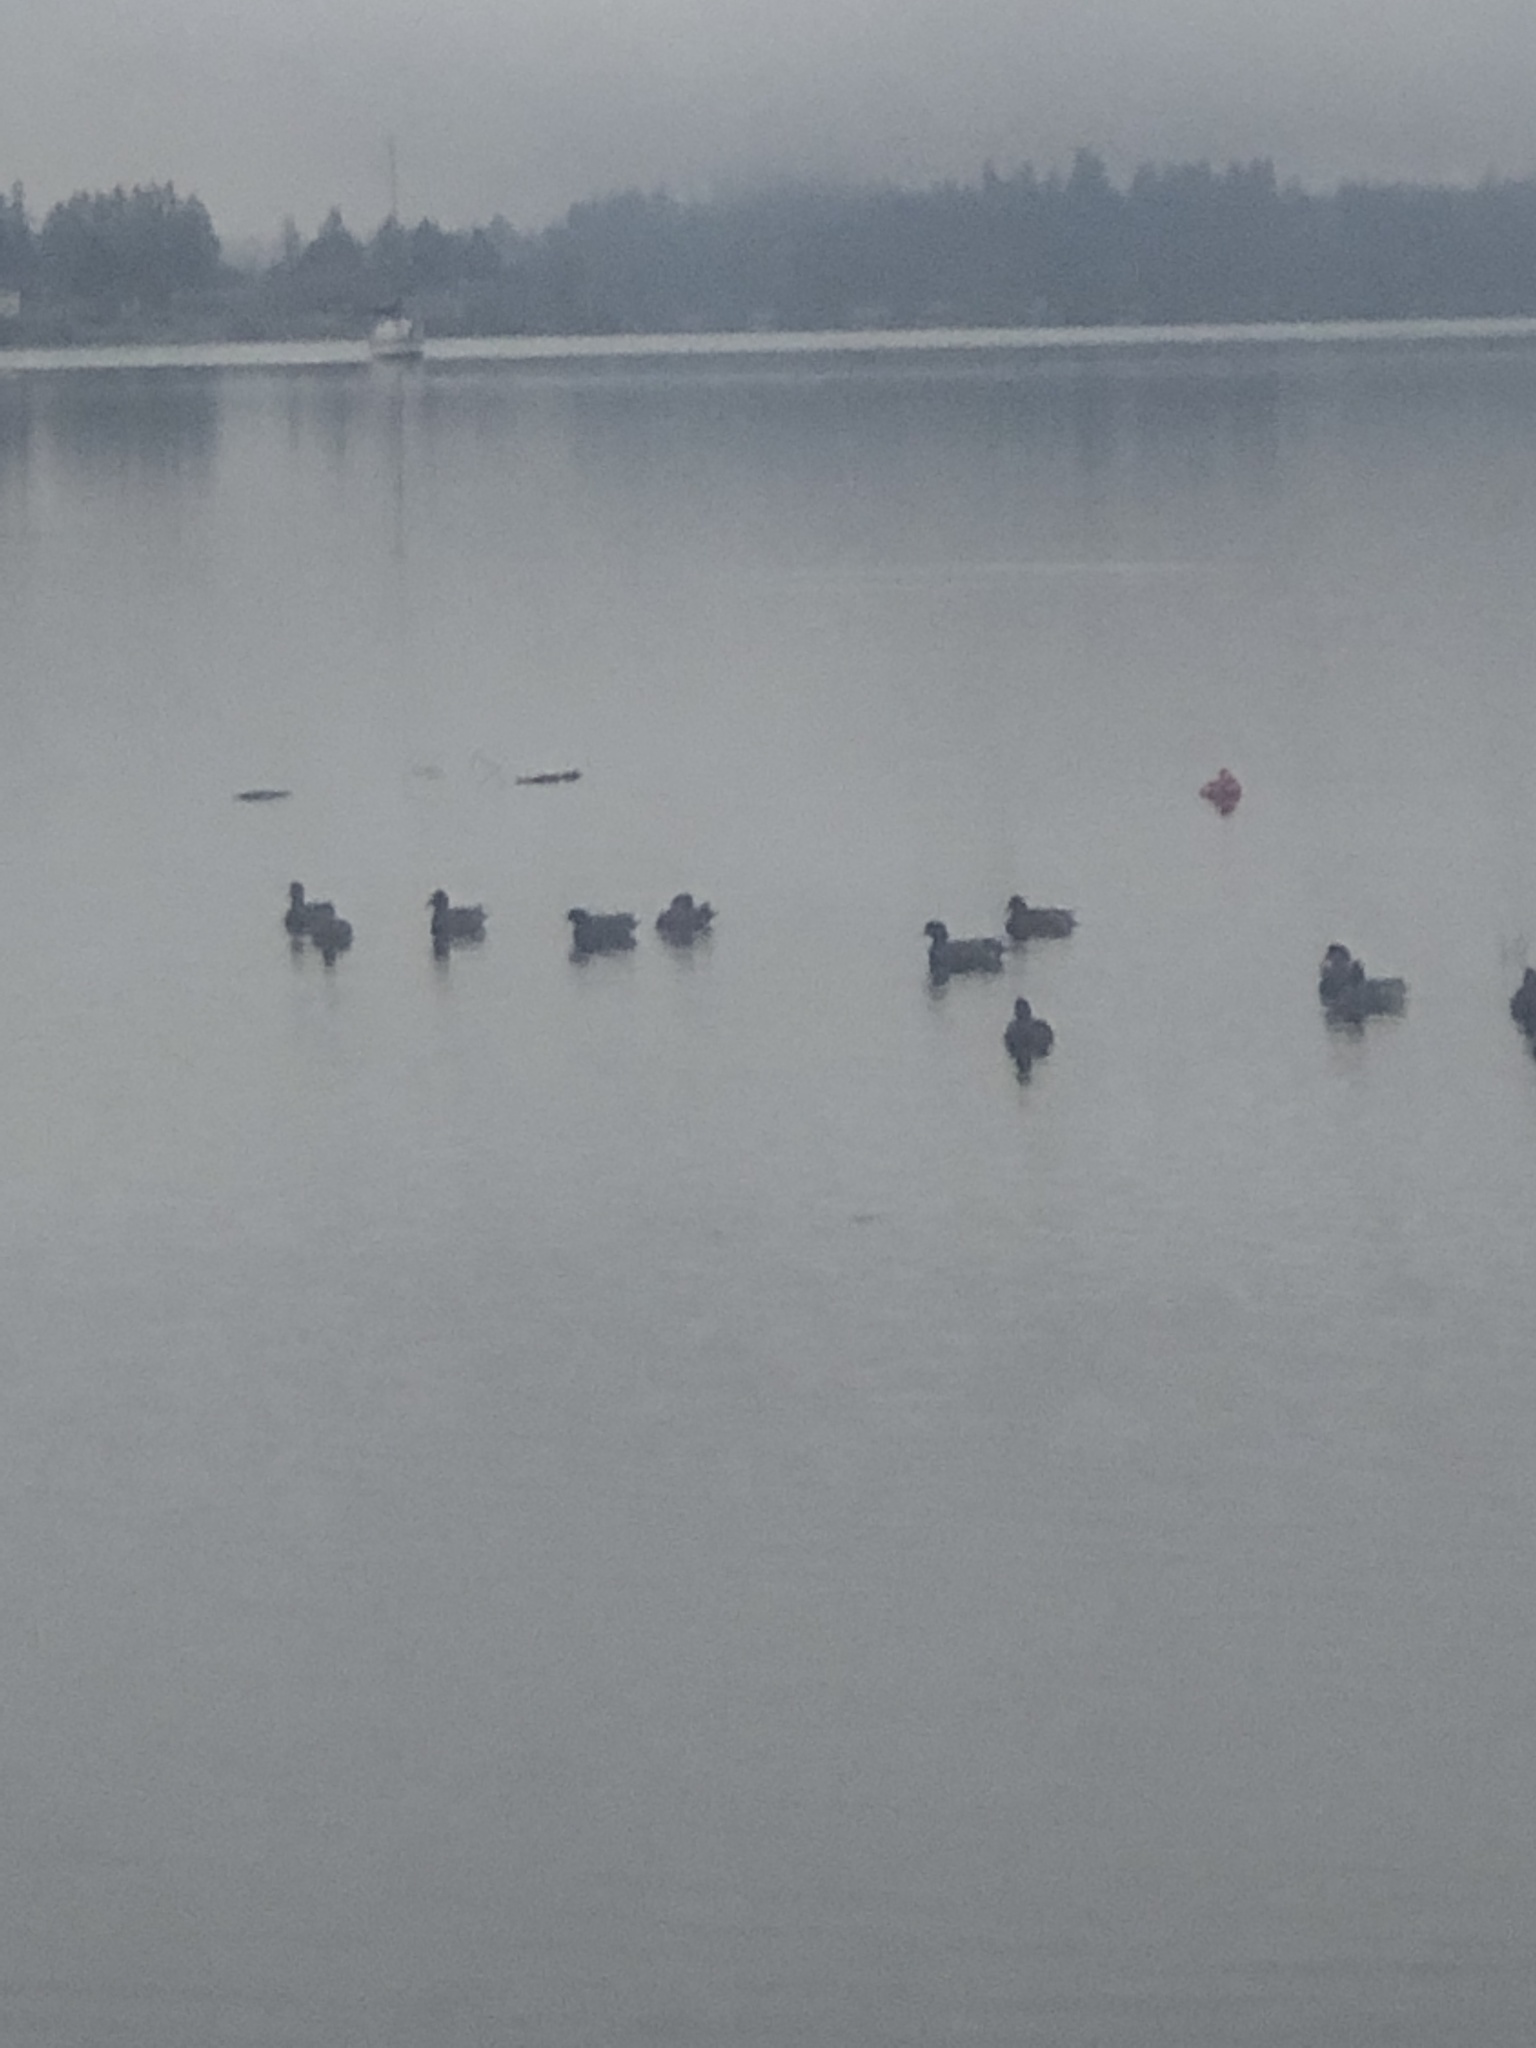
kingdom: Animalia
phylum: Chordata
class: Aves
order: Anseriformes
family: Anatidae
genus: Mareca
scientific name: Mareca americana
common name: American wigeon
